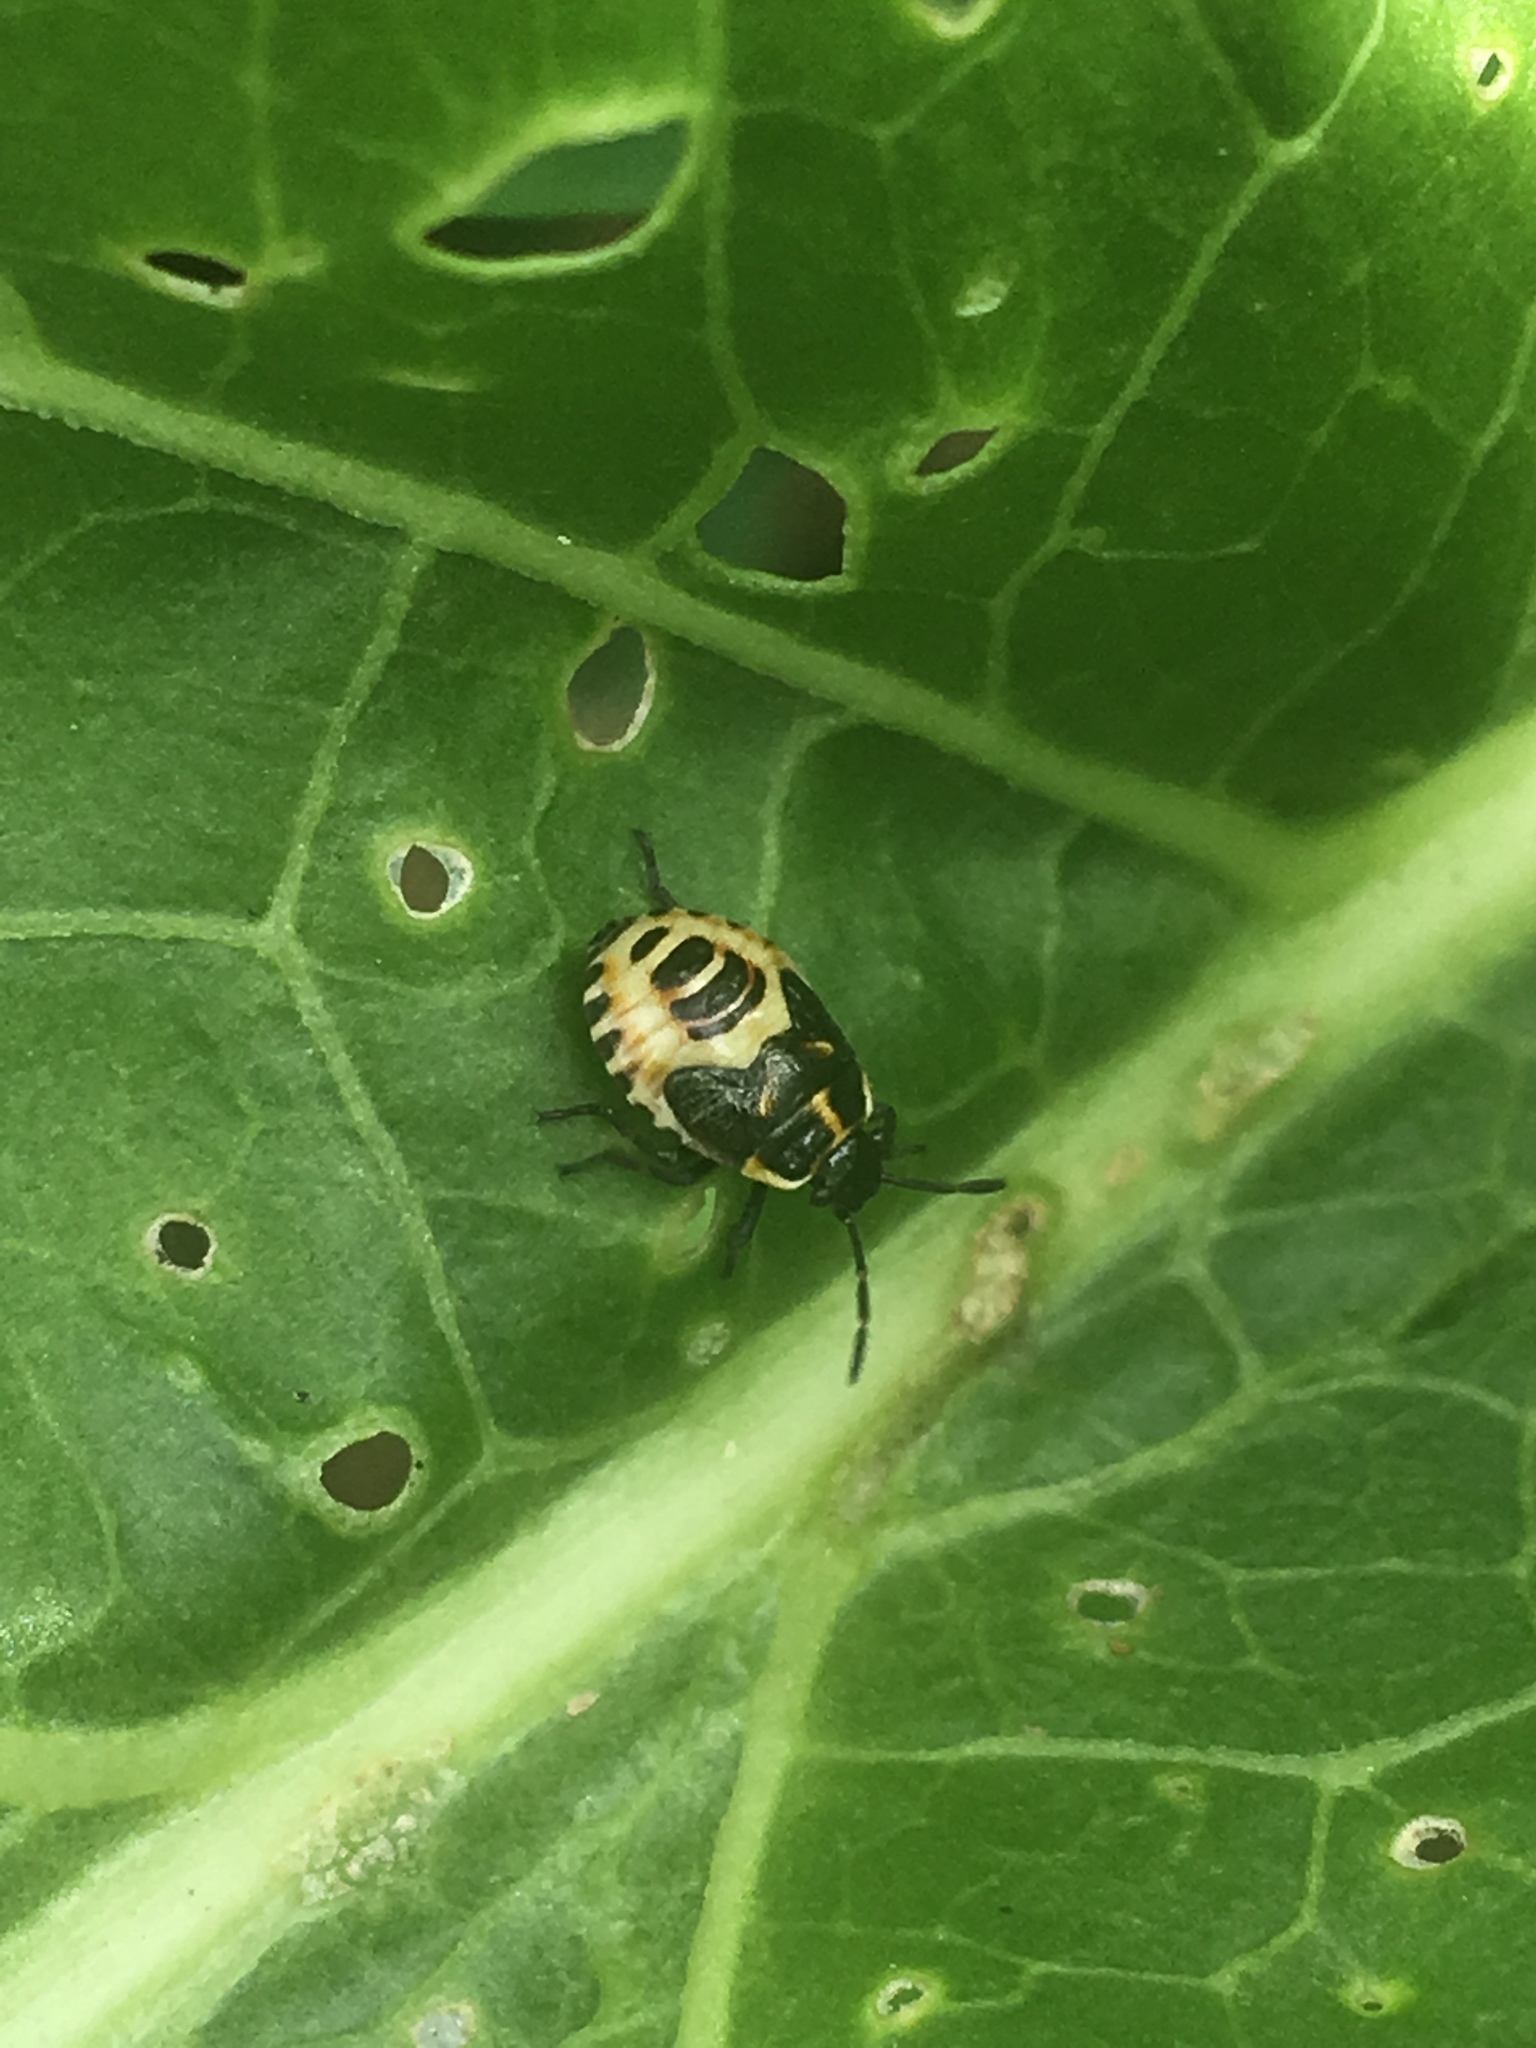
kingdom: Animalia
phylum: Arthropoda
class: Insecta
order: Hemiptera
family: Pentatomidae
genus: Eurydema
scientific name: Eurydema oleracea
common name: Cabbage bug
